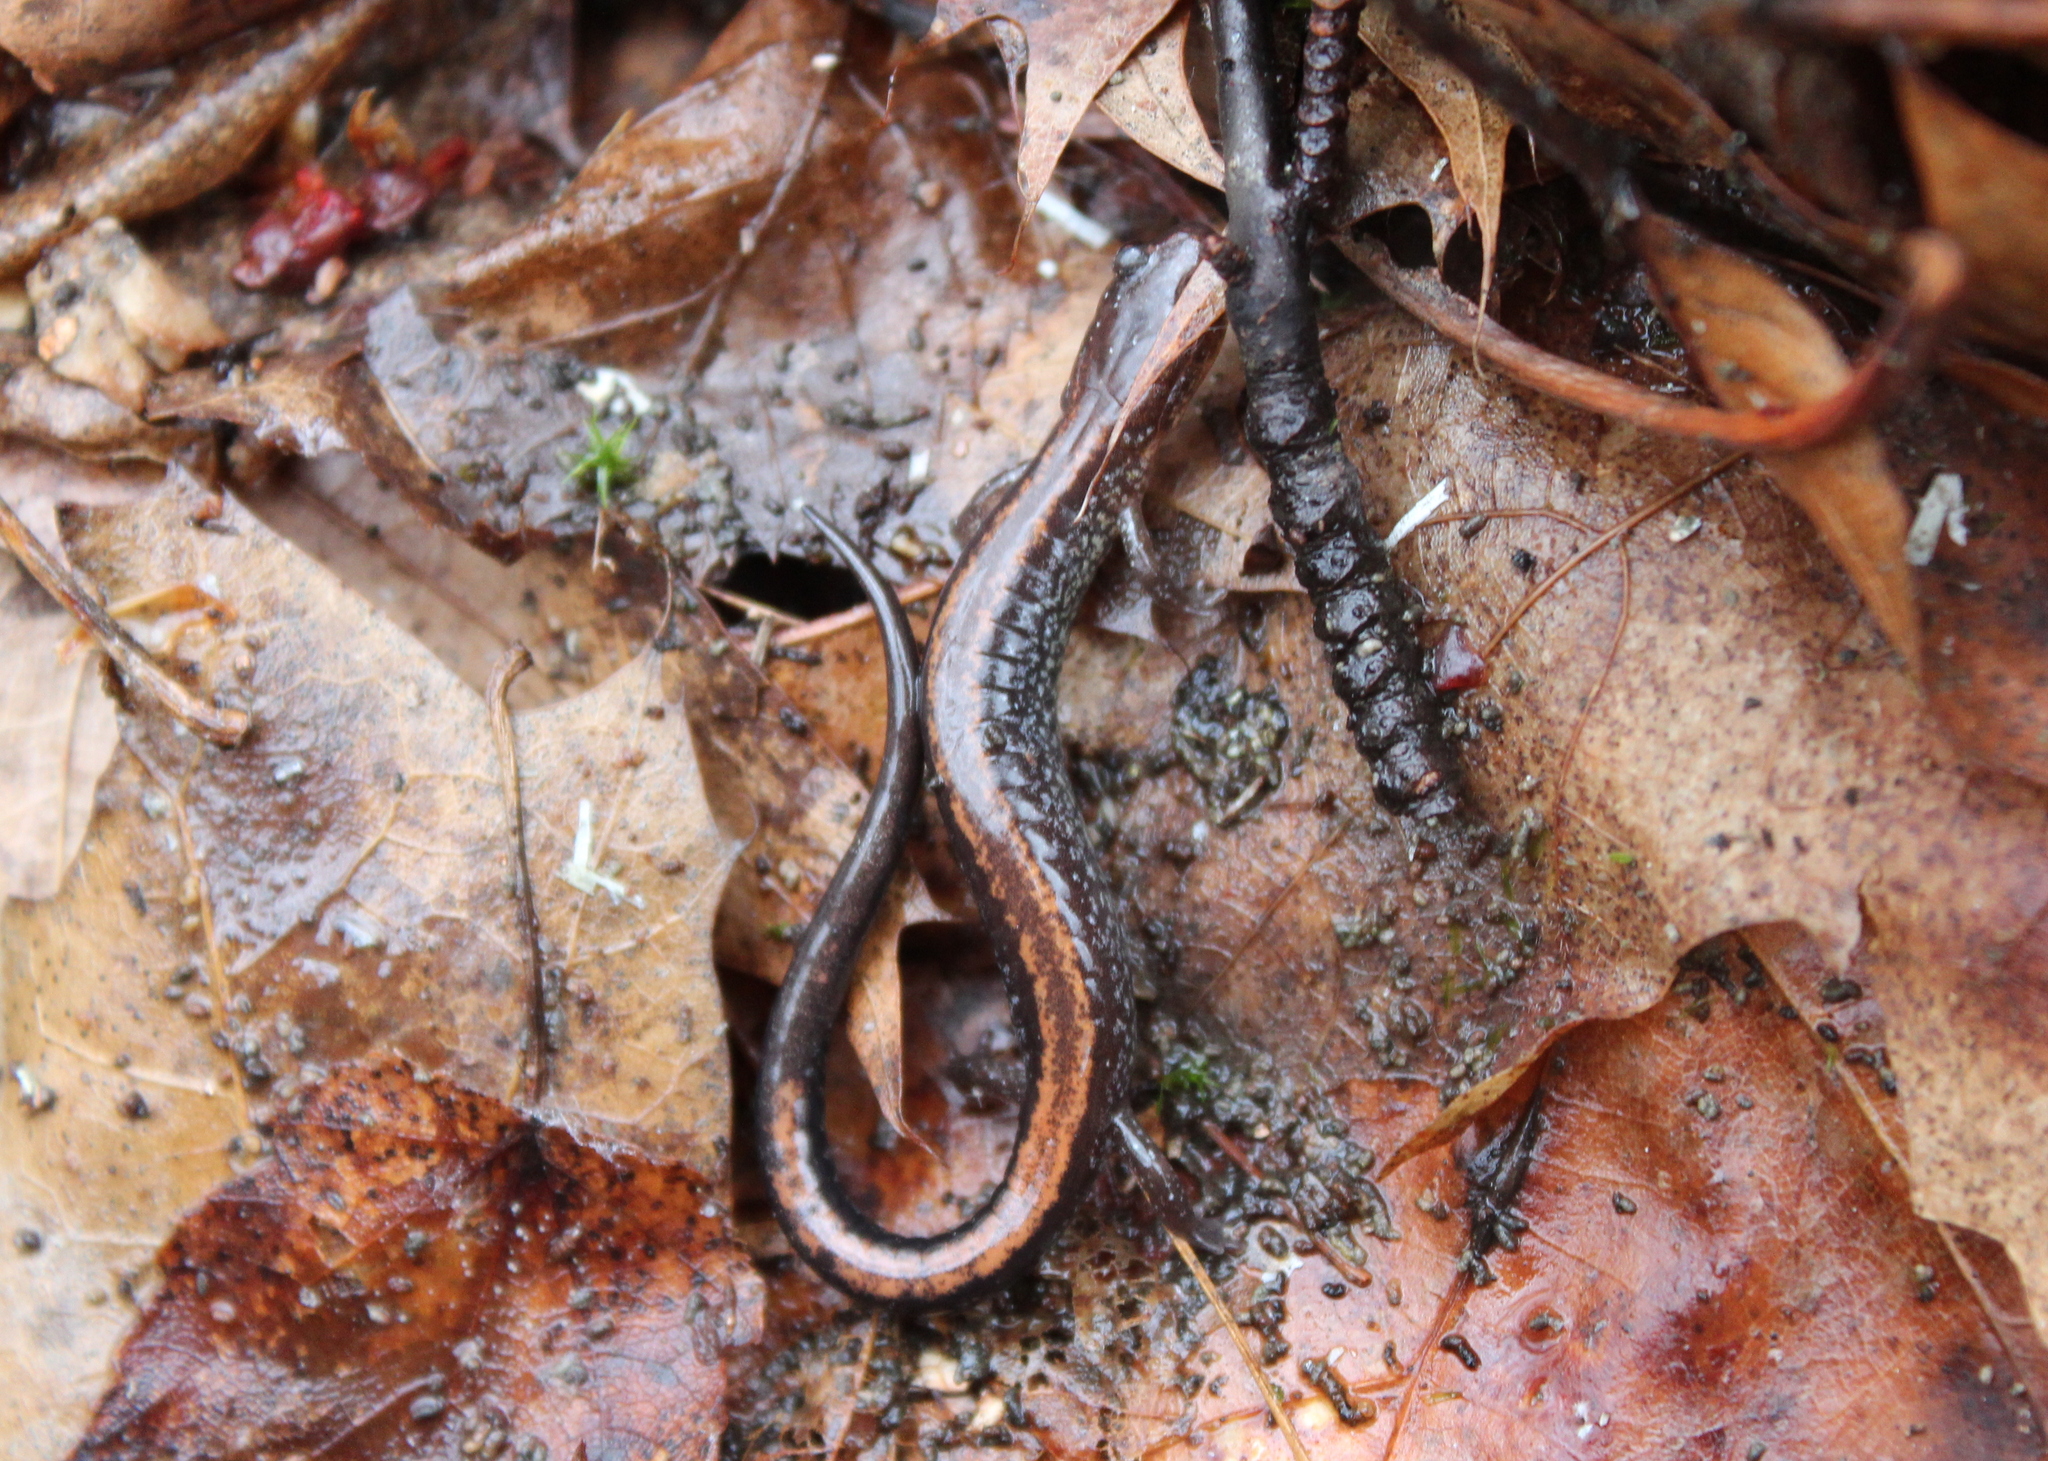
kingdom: Animalia
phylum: Chordata
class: Amphibia
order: Caudata
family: Plethodontidae
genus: Plethodon
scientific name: Plethodon cinereus
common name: Redback salamander
